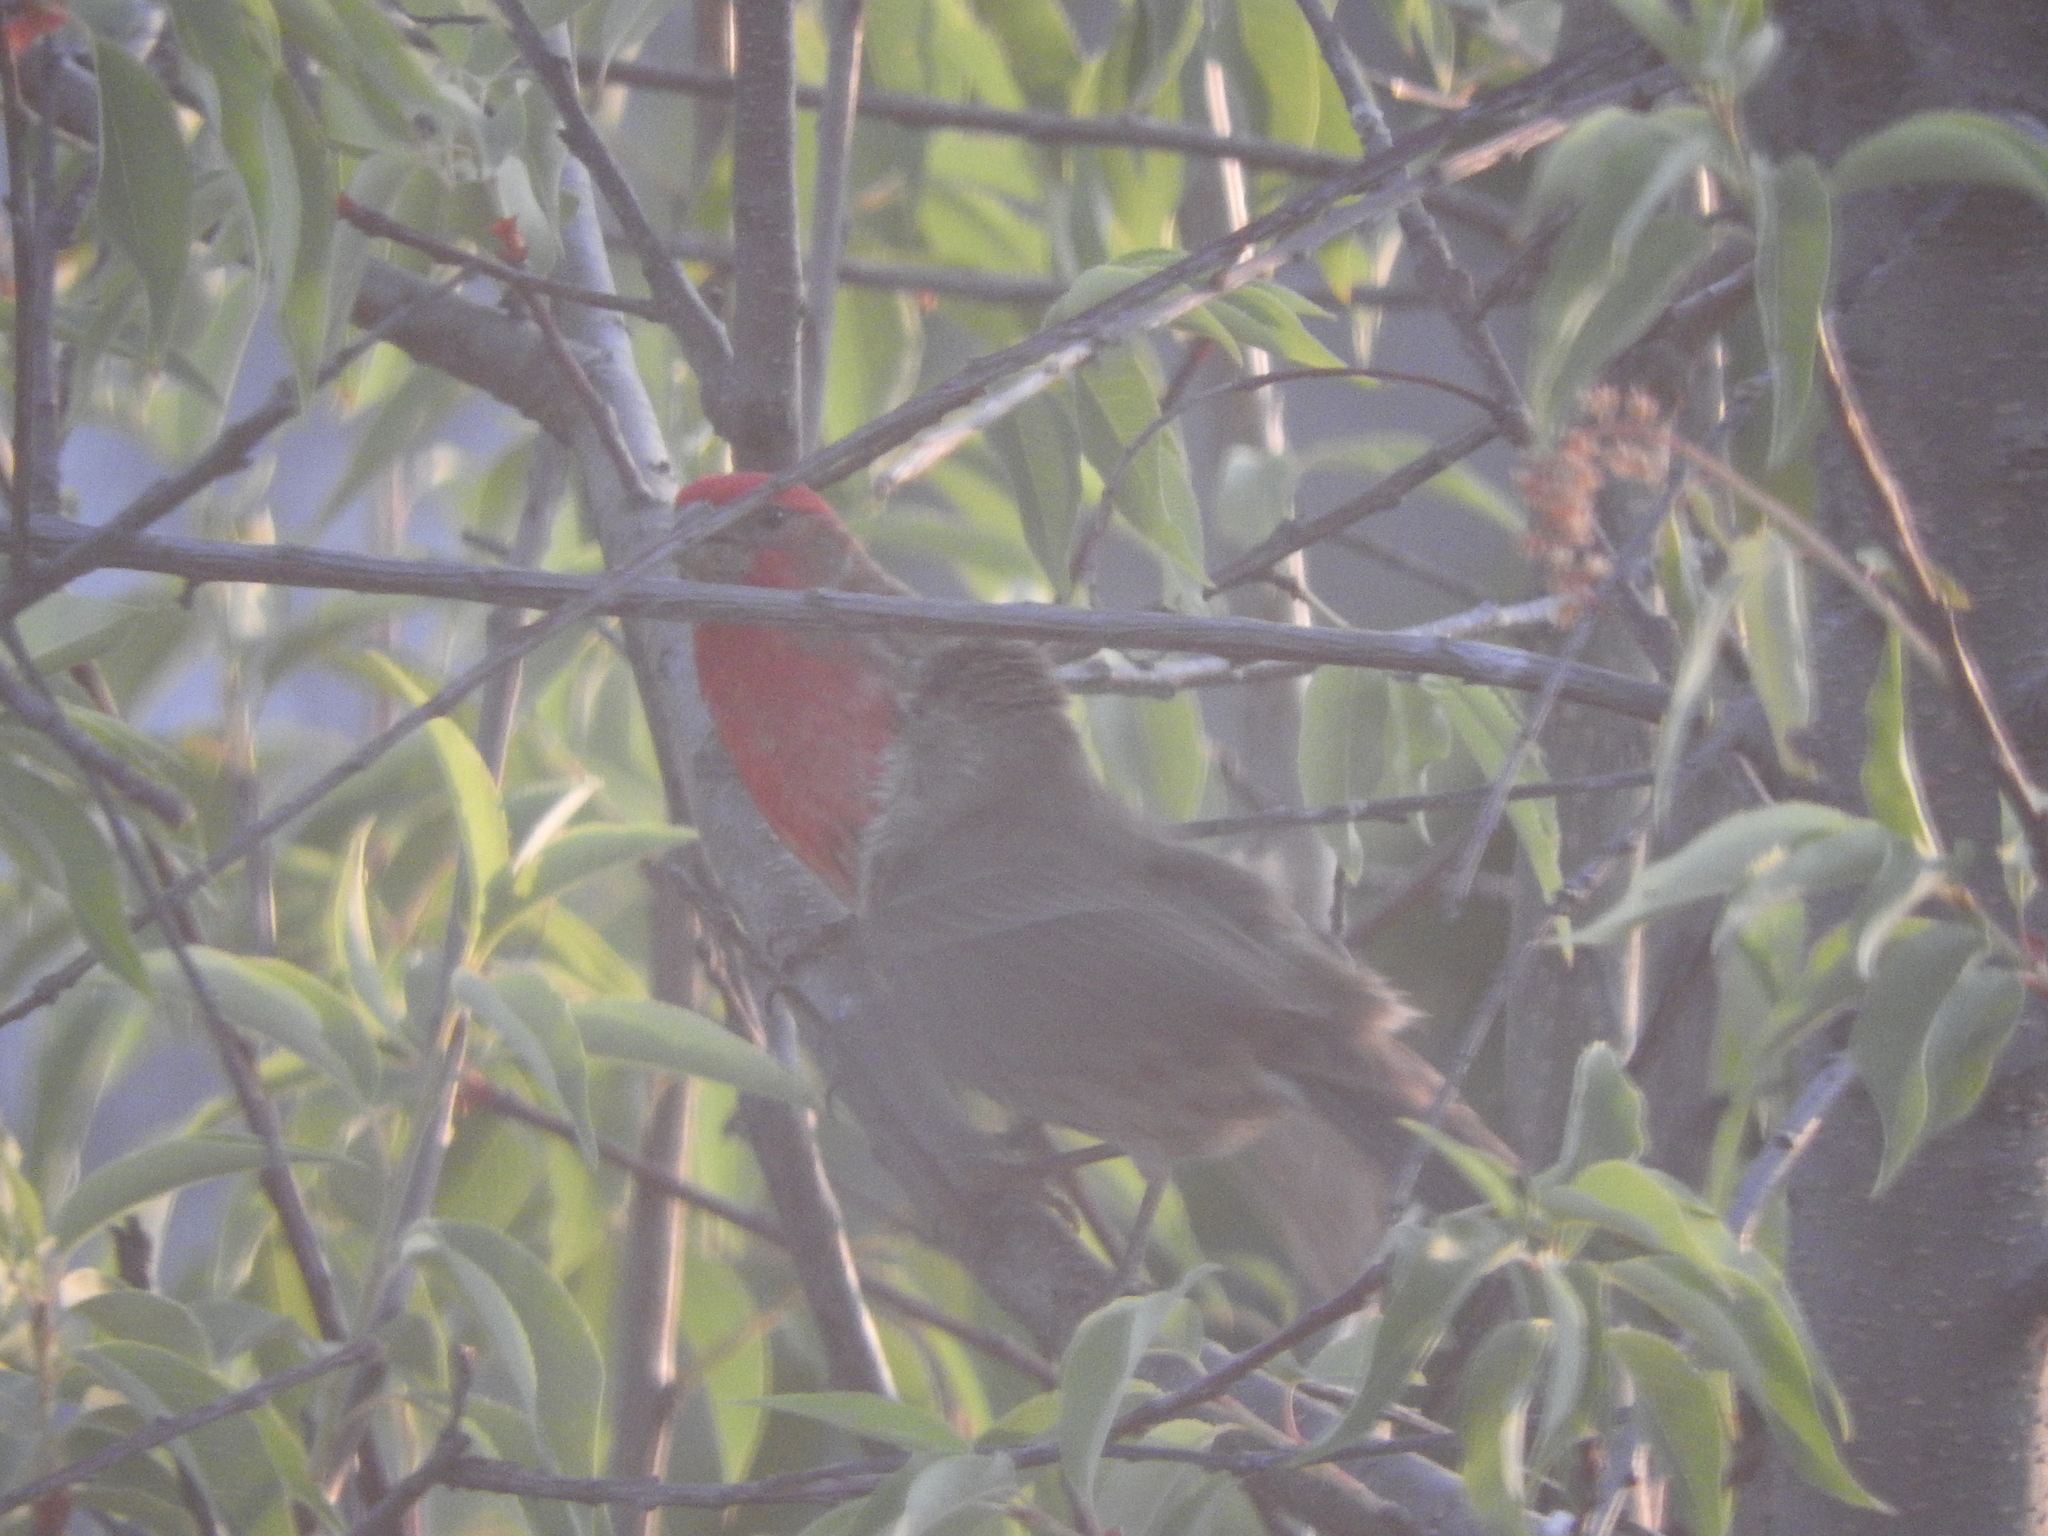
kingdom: Animalia
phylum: Chordata
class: Aves
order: Passeriformes
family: Fringillidae
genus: Haemorhous
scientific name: Haemorhous mexicanus
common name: House finch
